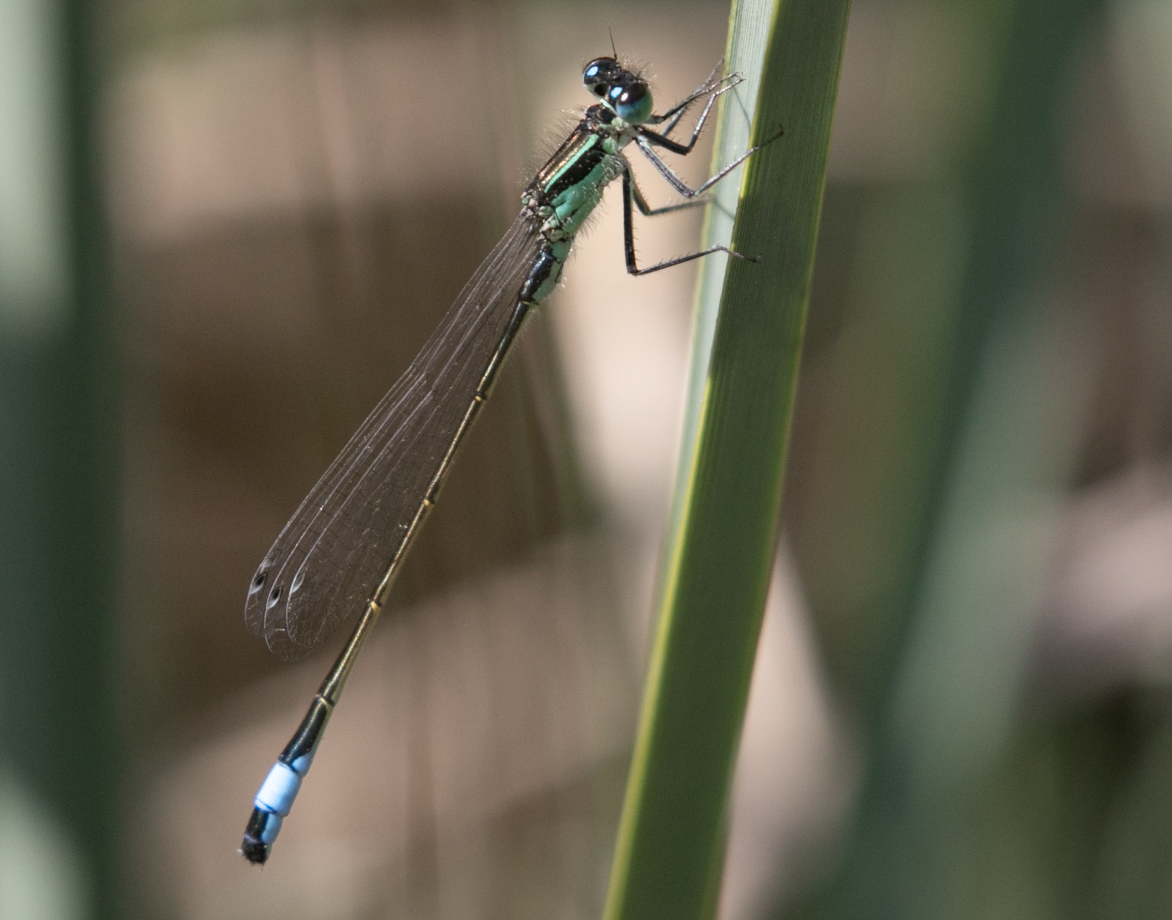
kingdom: Animalia
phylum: Arthropoda
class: Insecta
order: Odonata
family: Coenagrionidae
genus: Ischnura
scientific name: Ischnura elegans
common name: Blue-tailed damselfly
